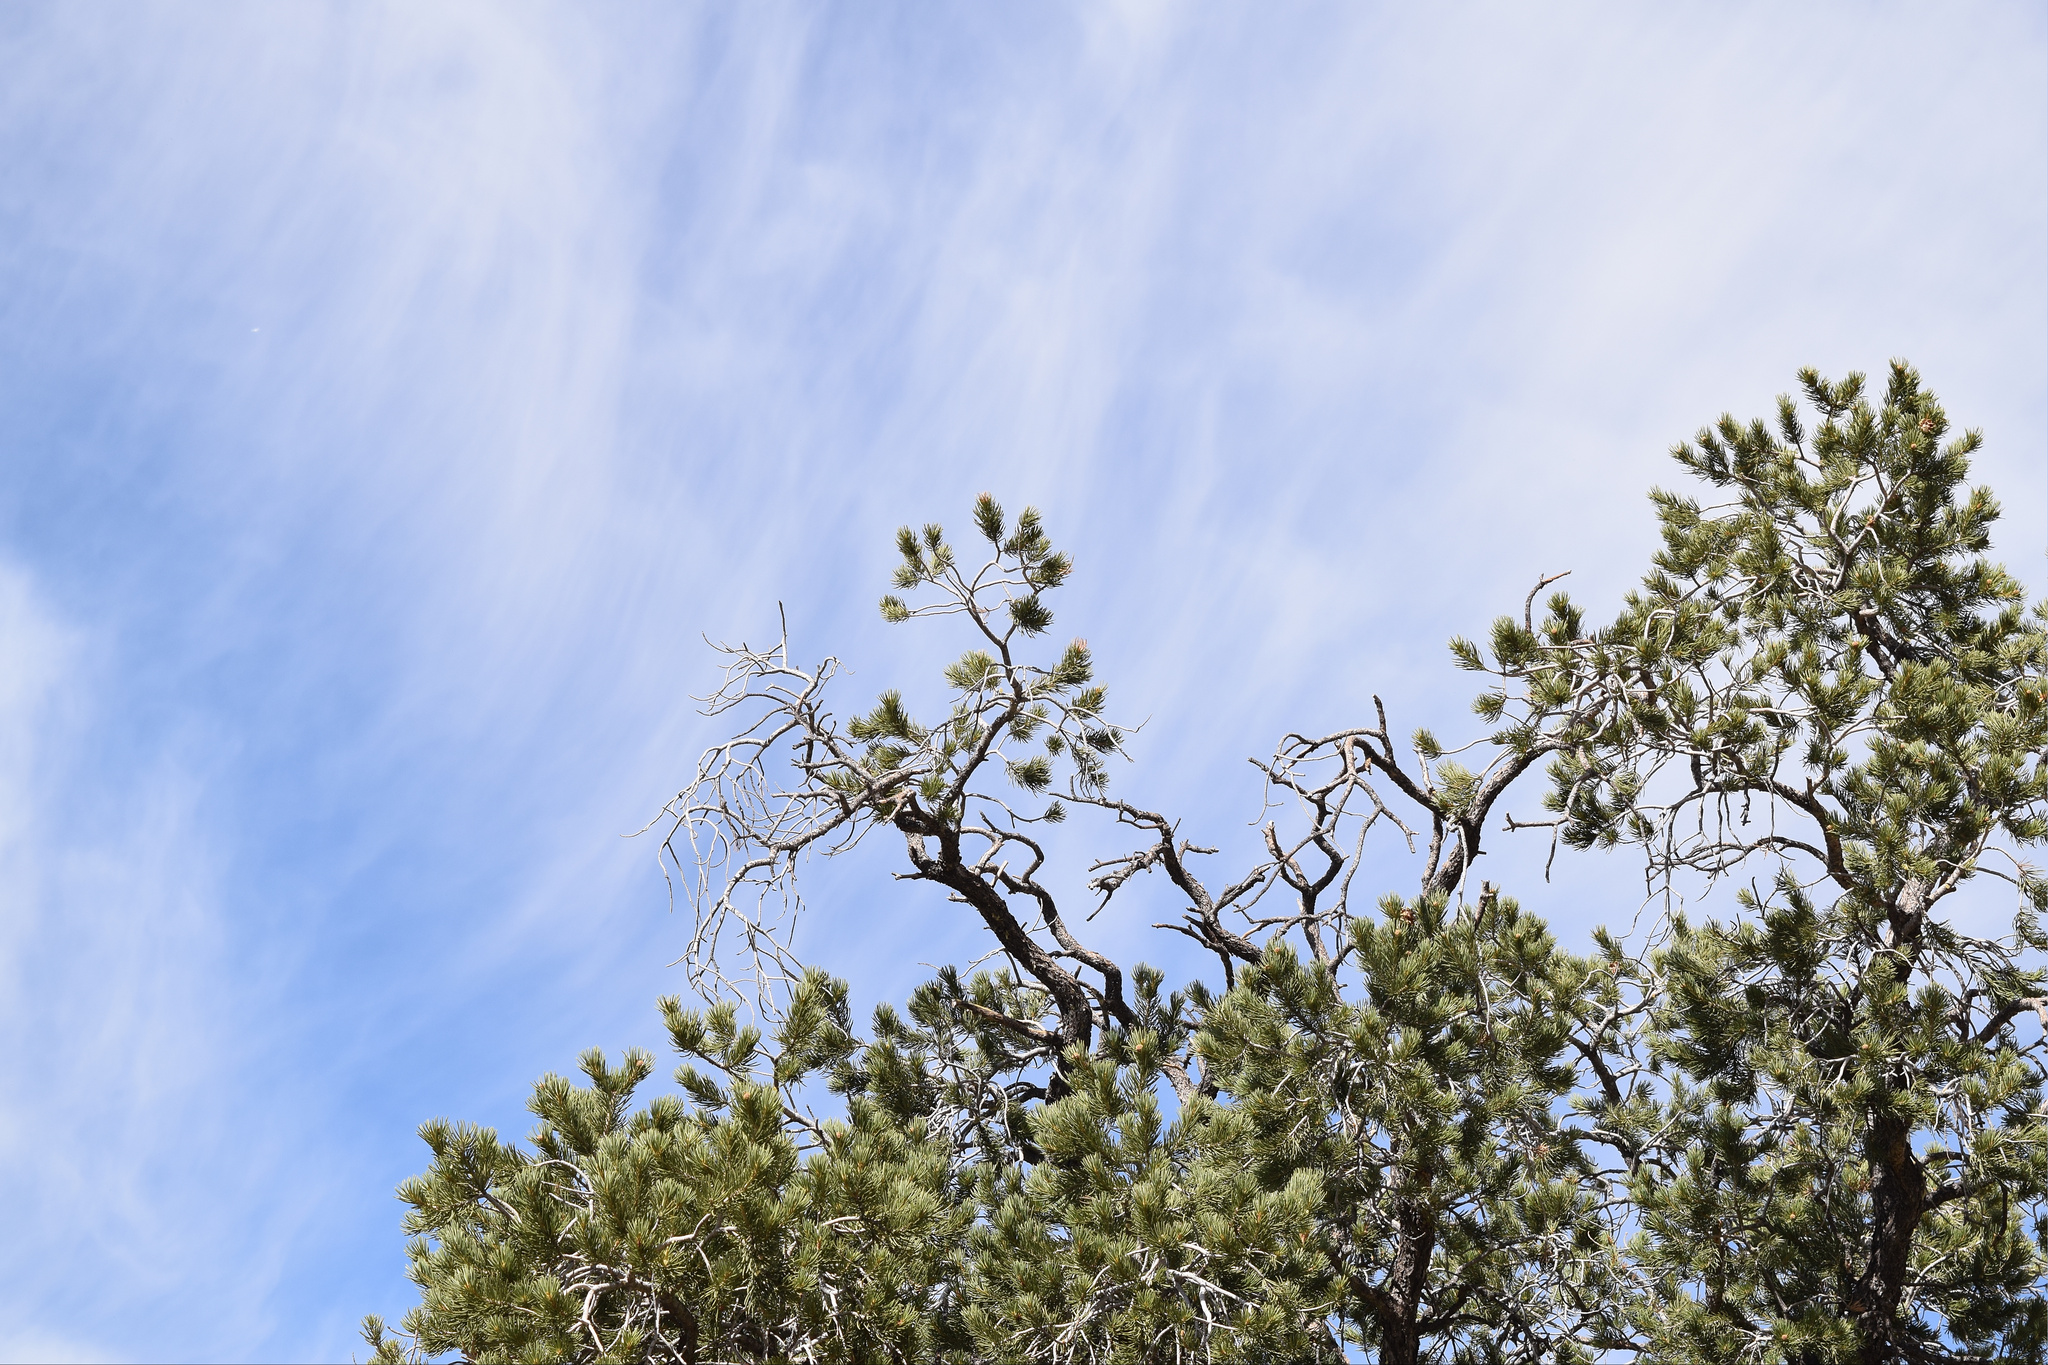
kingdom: Plantae
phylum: Tracheophyta
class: Pinopsida
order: Pinales
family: Pinaceae
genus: Pinus
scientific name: Pinus monophylla
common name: One-leaved nut pine
